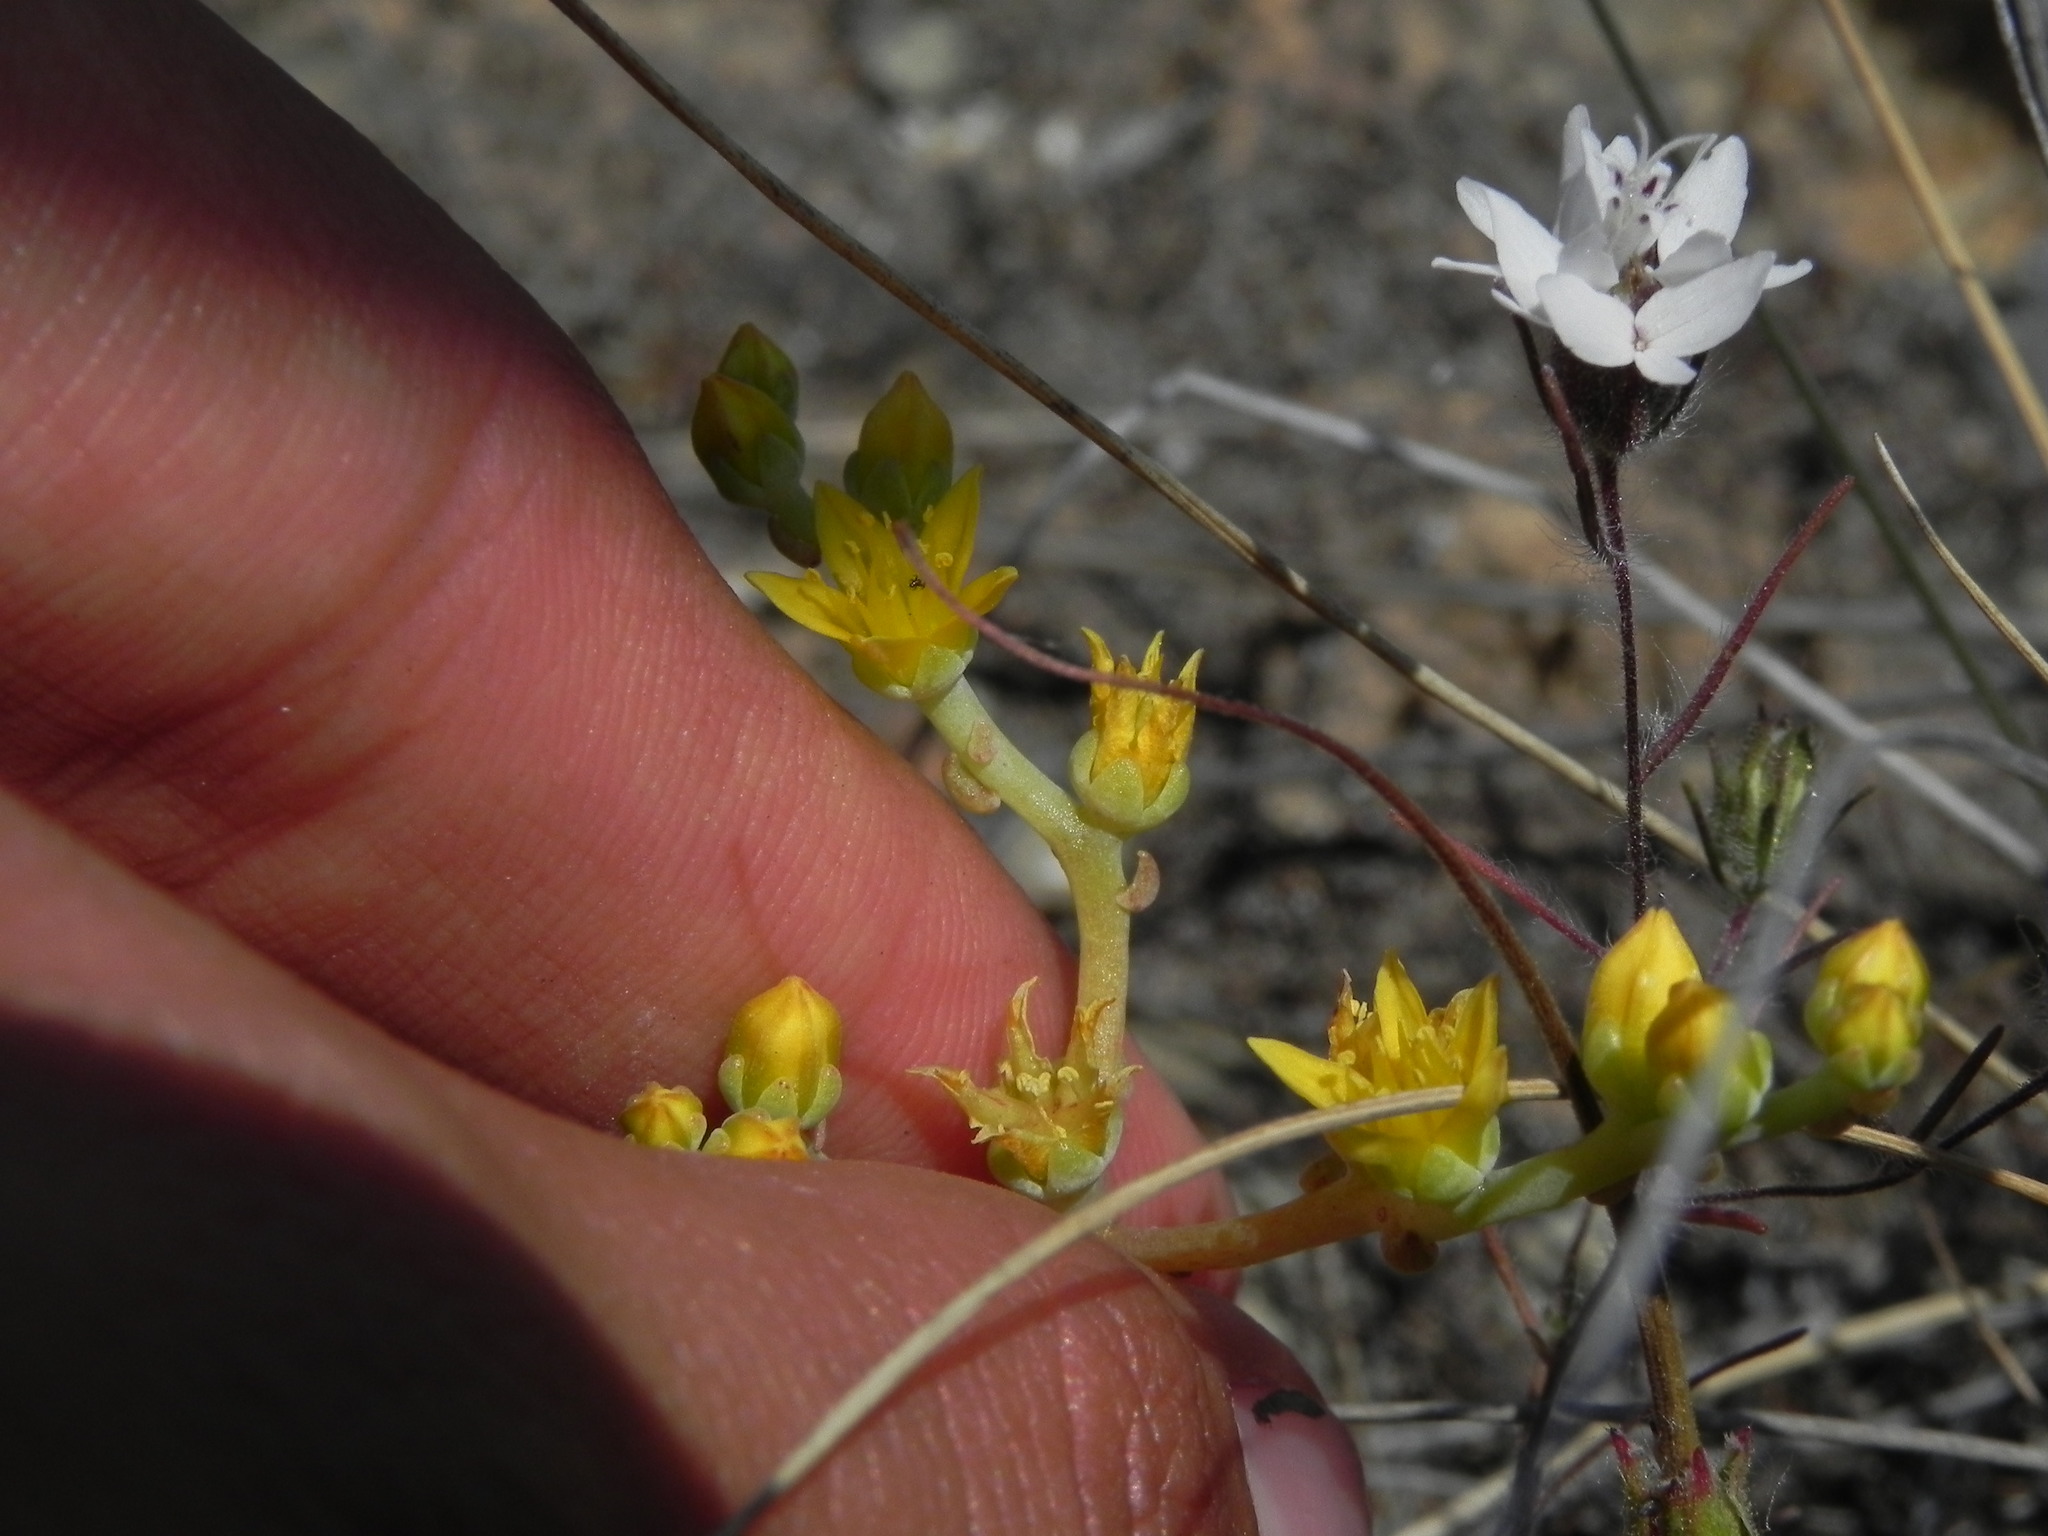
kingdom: Plantae
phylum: Tracheophyta
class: Magnoliopsida
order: Saxifragales
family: Crassulaceae
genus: Dudleya
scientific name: Dudleya variegata
